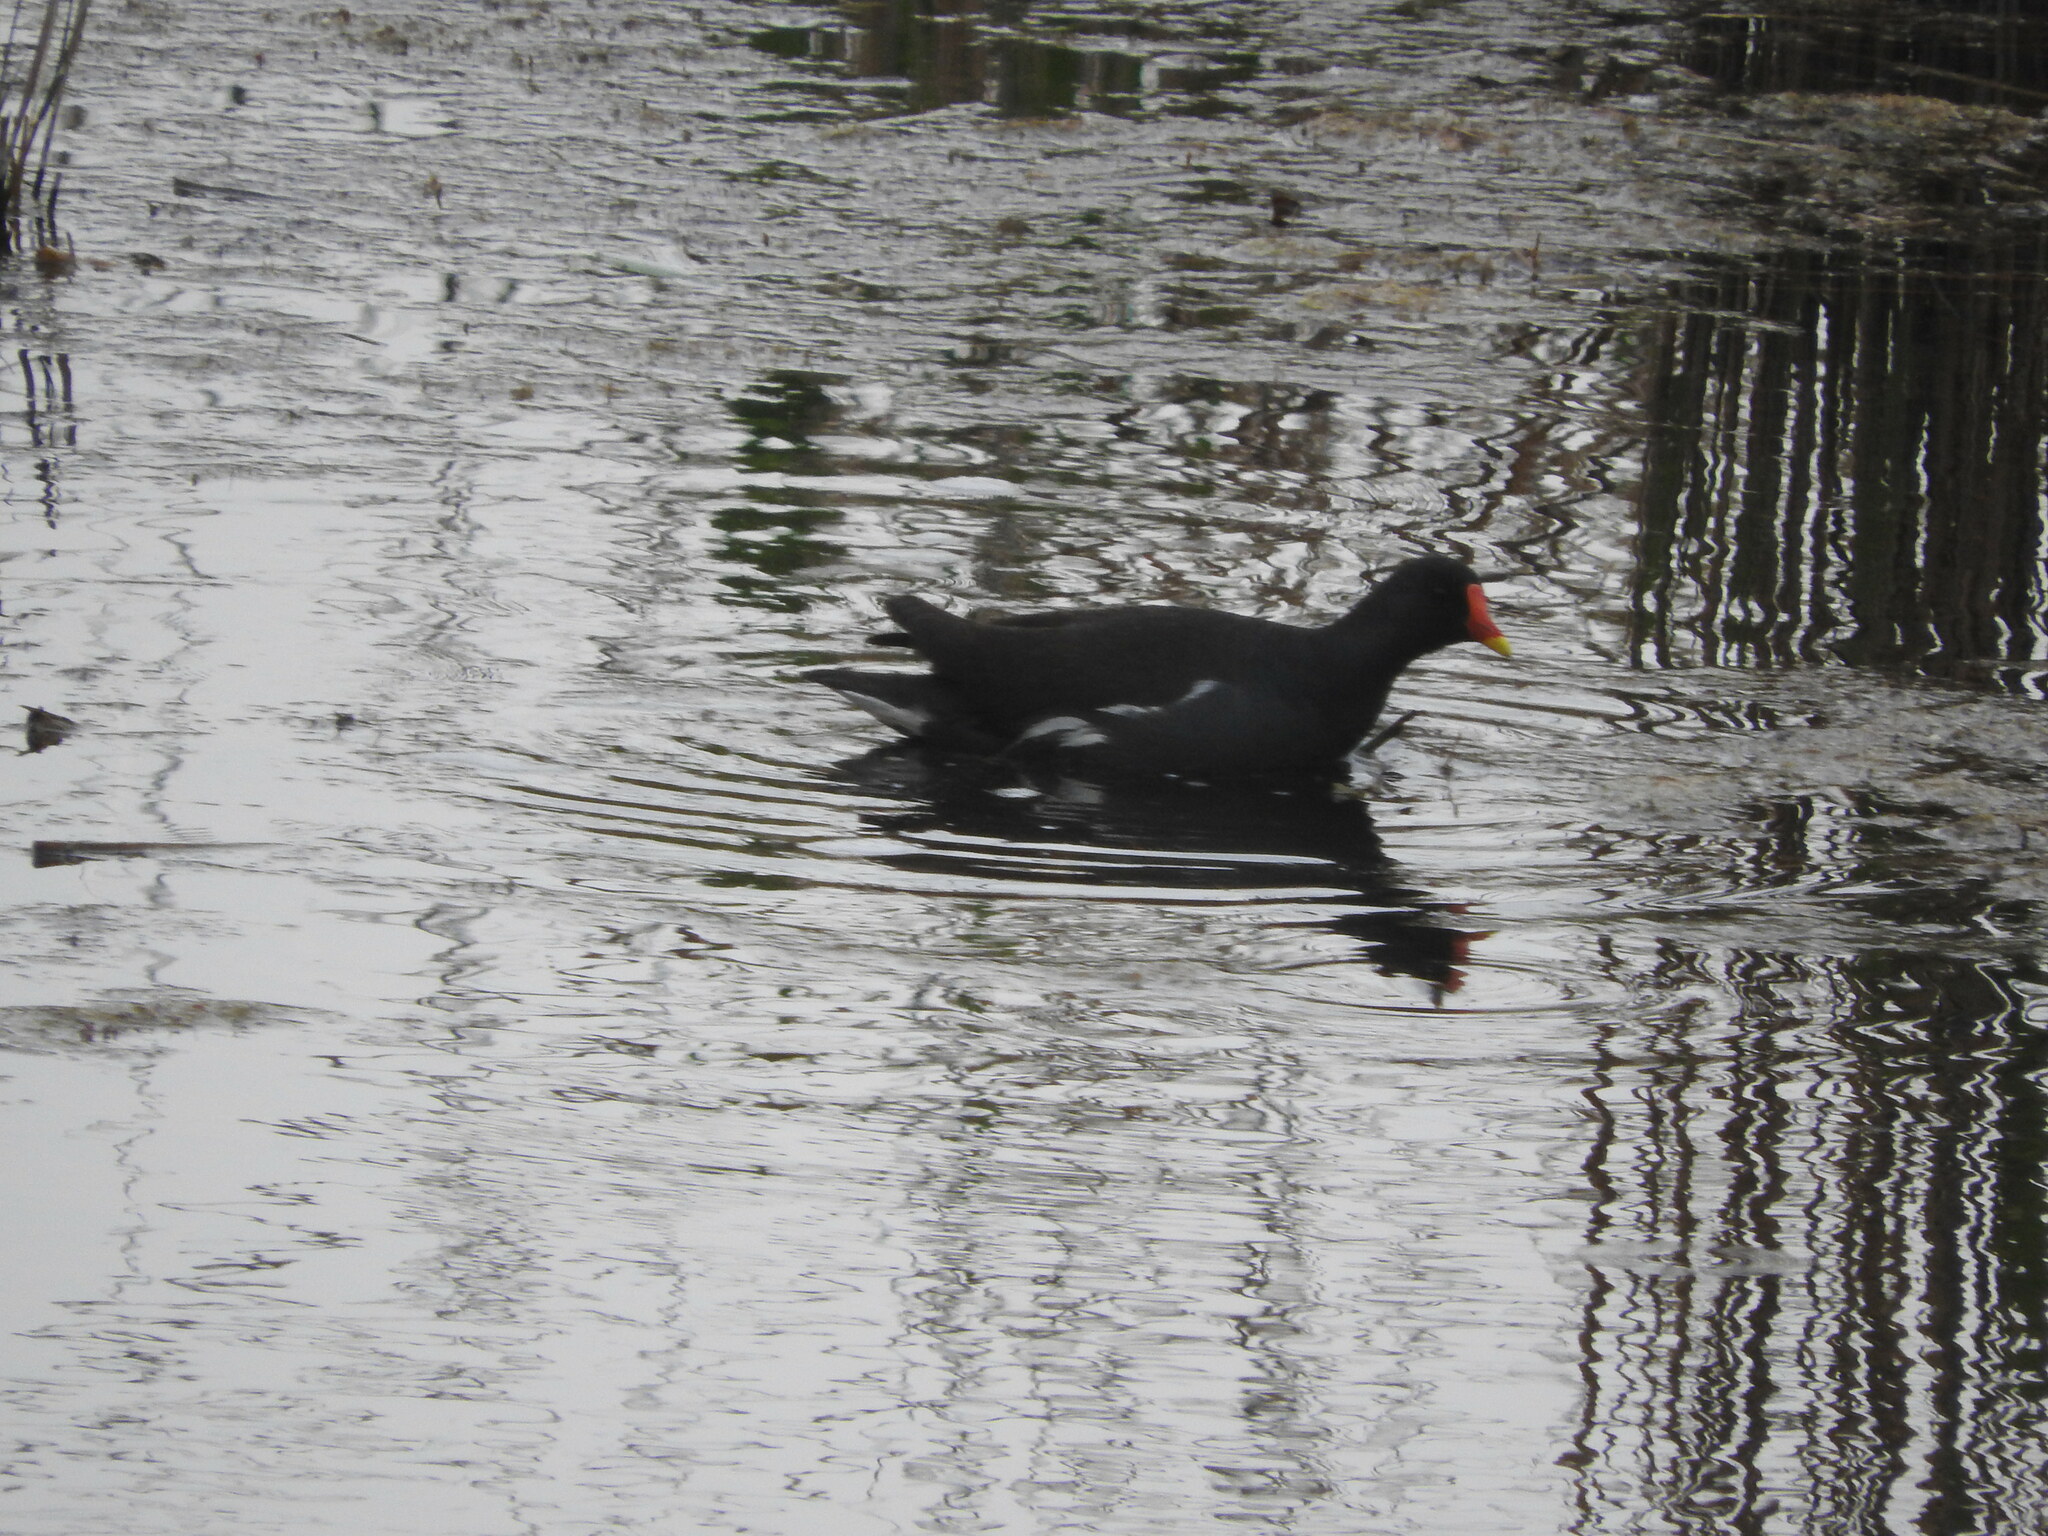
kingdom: Animalia
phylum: Chordata
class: Aves
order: Gruiformes
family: Rallidae
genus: Gallinula
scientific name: Gallinula chloropus
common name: Common moorhen
